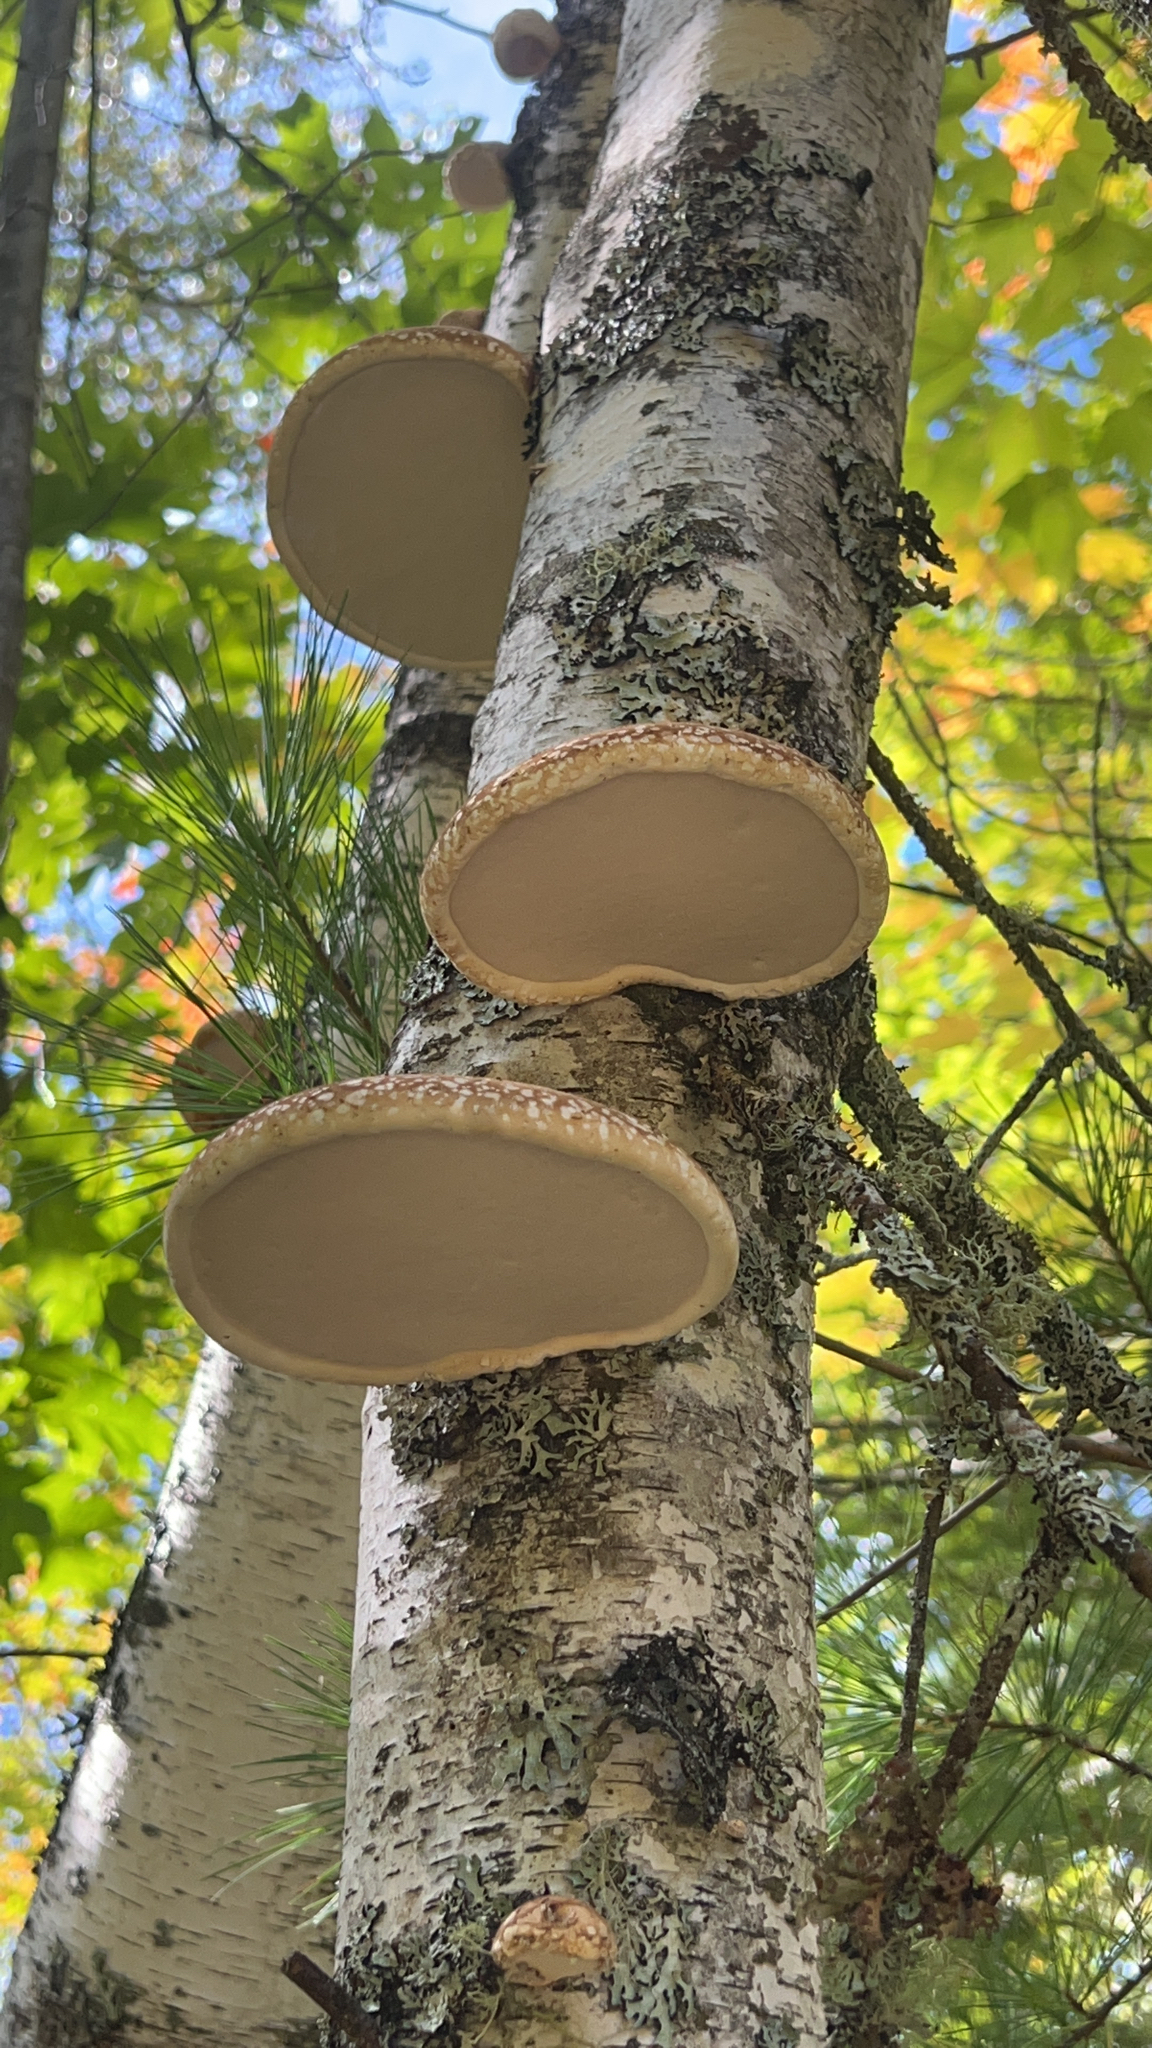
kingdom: Fungi
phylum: Basidiomycota
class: Agaricomycetes
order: Polyporales
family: Fomitopsidaceae
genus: Fomitopsis
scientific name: Fomitopsis betulina
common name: Birch polypore
